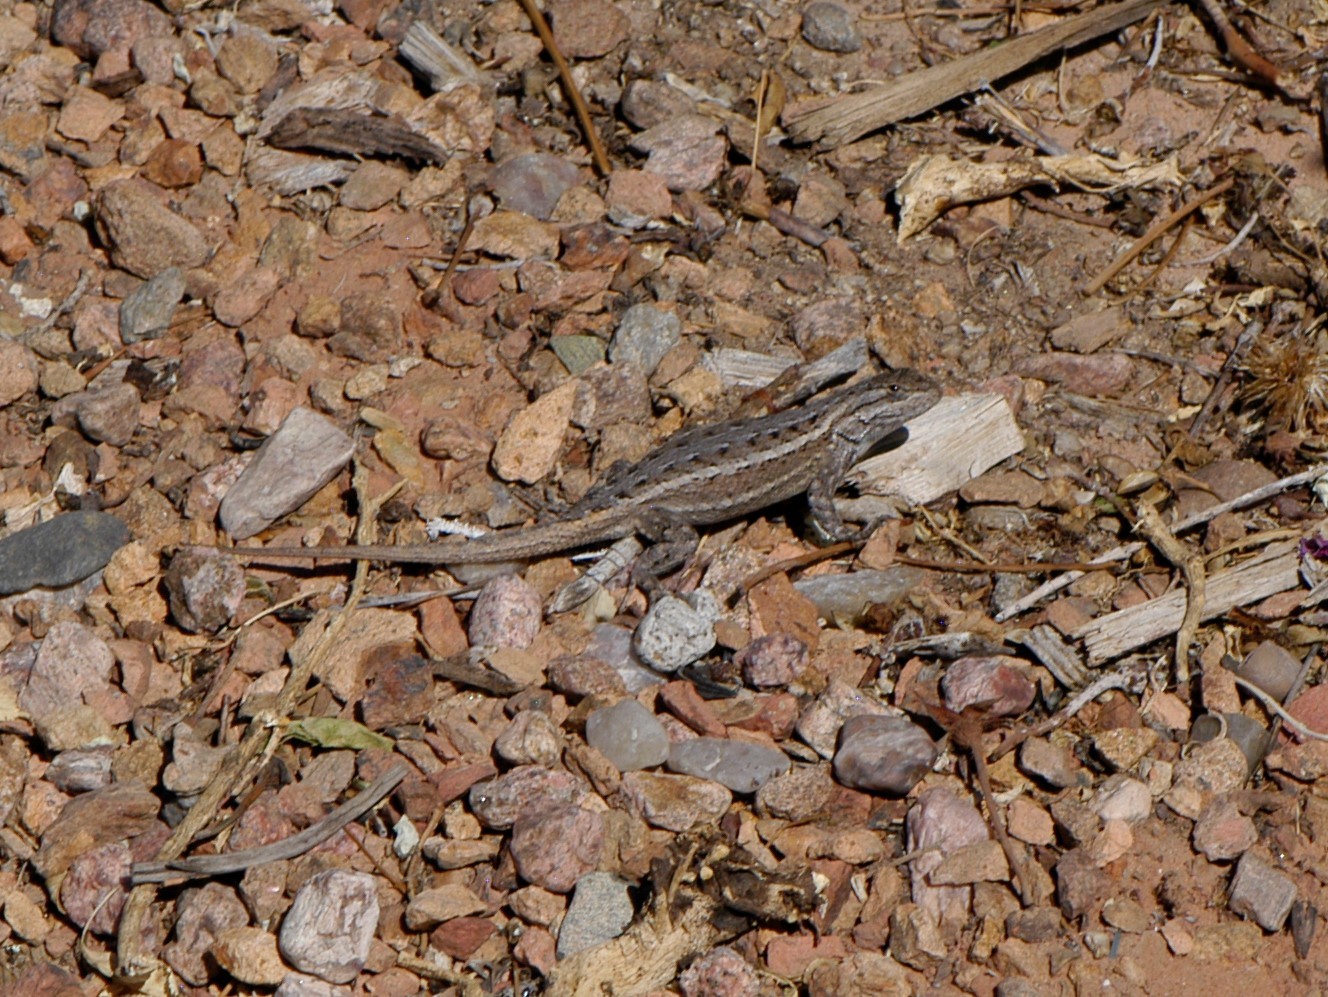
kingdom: Animalia
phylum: Chordata
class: Squamata
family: Phrynosomatidae
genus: Sceloporus
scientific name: Sceloporus cowlesi
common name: White sands prairie lizard
